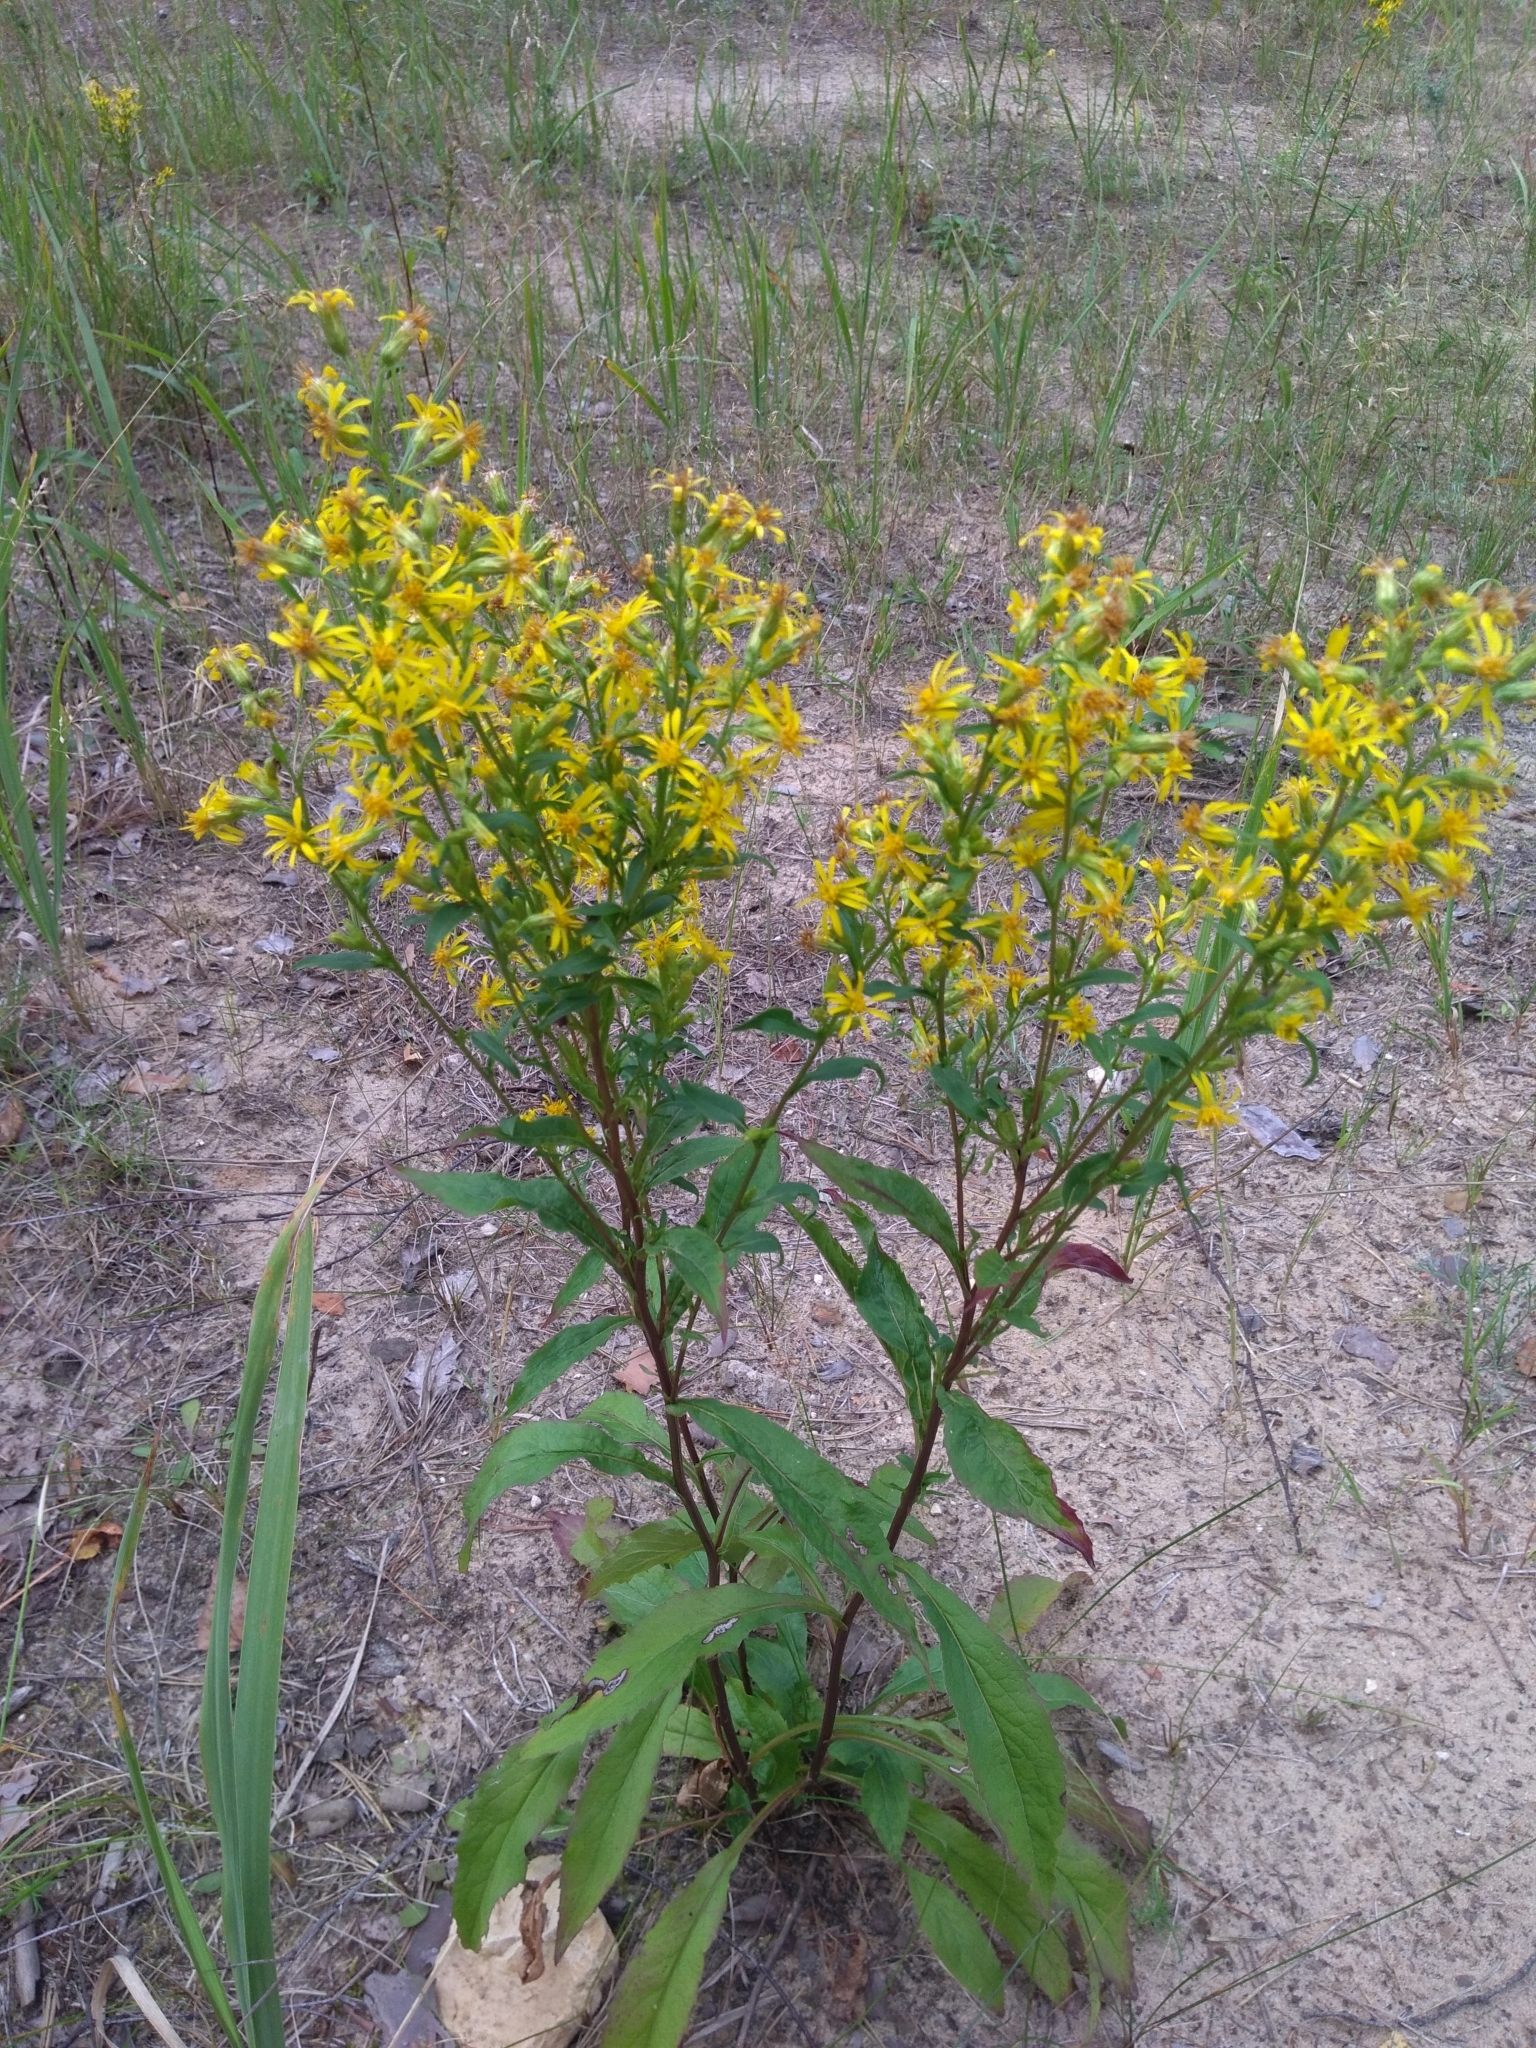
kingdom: Plantae
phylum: Tracheophyta
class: Magnoliopsida
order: Asterales
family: Asteraceae
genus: Solidago
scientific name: Solidago virgaurea
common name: Goldenrod
